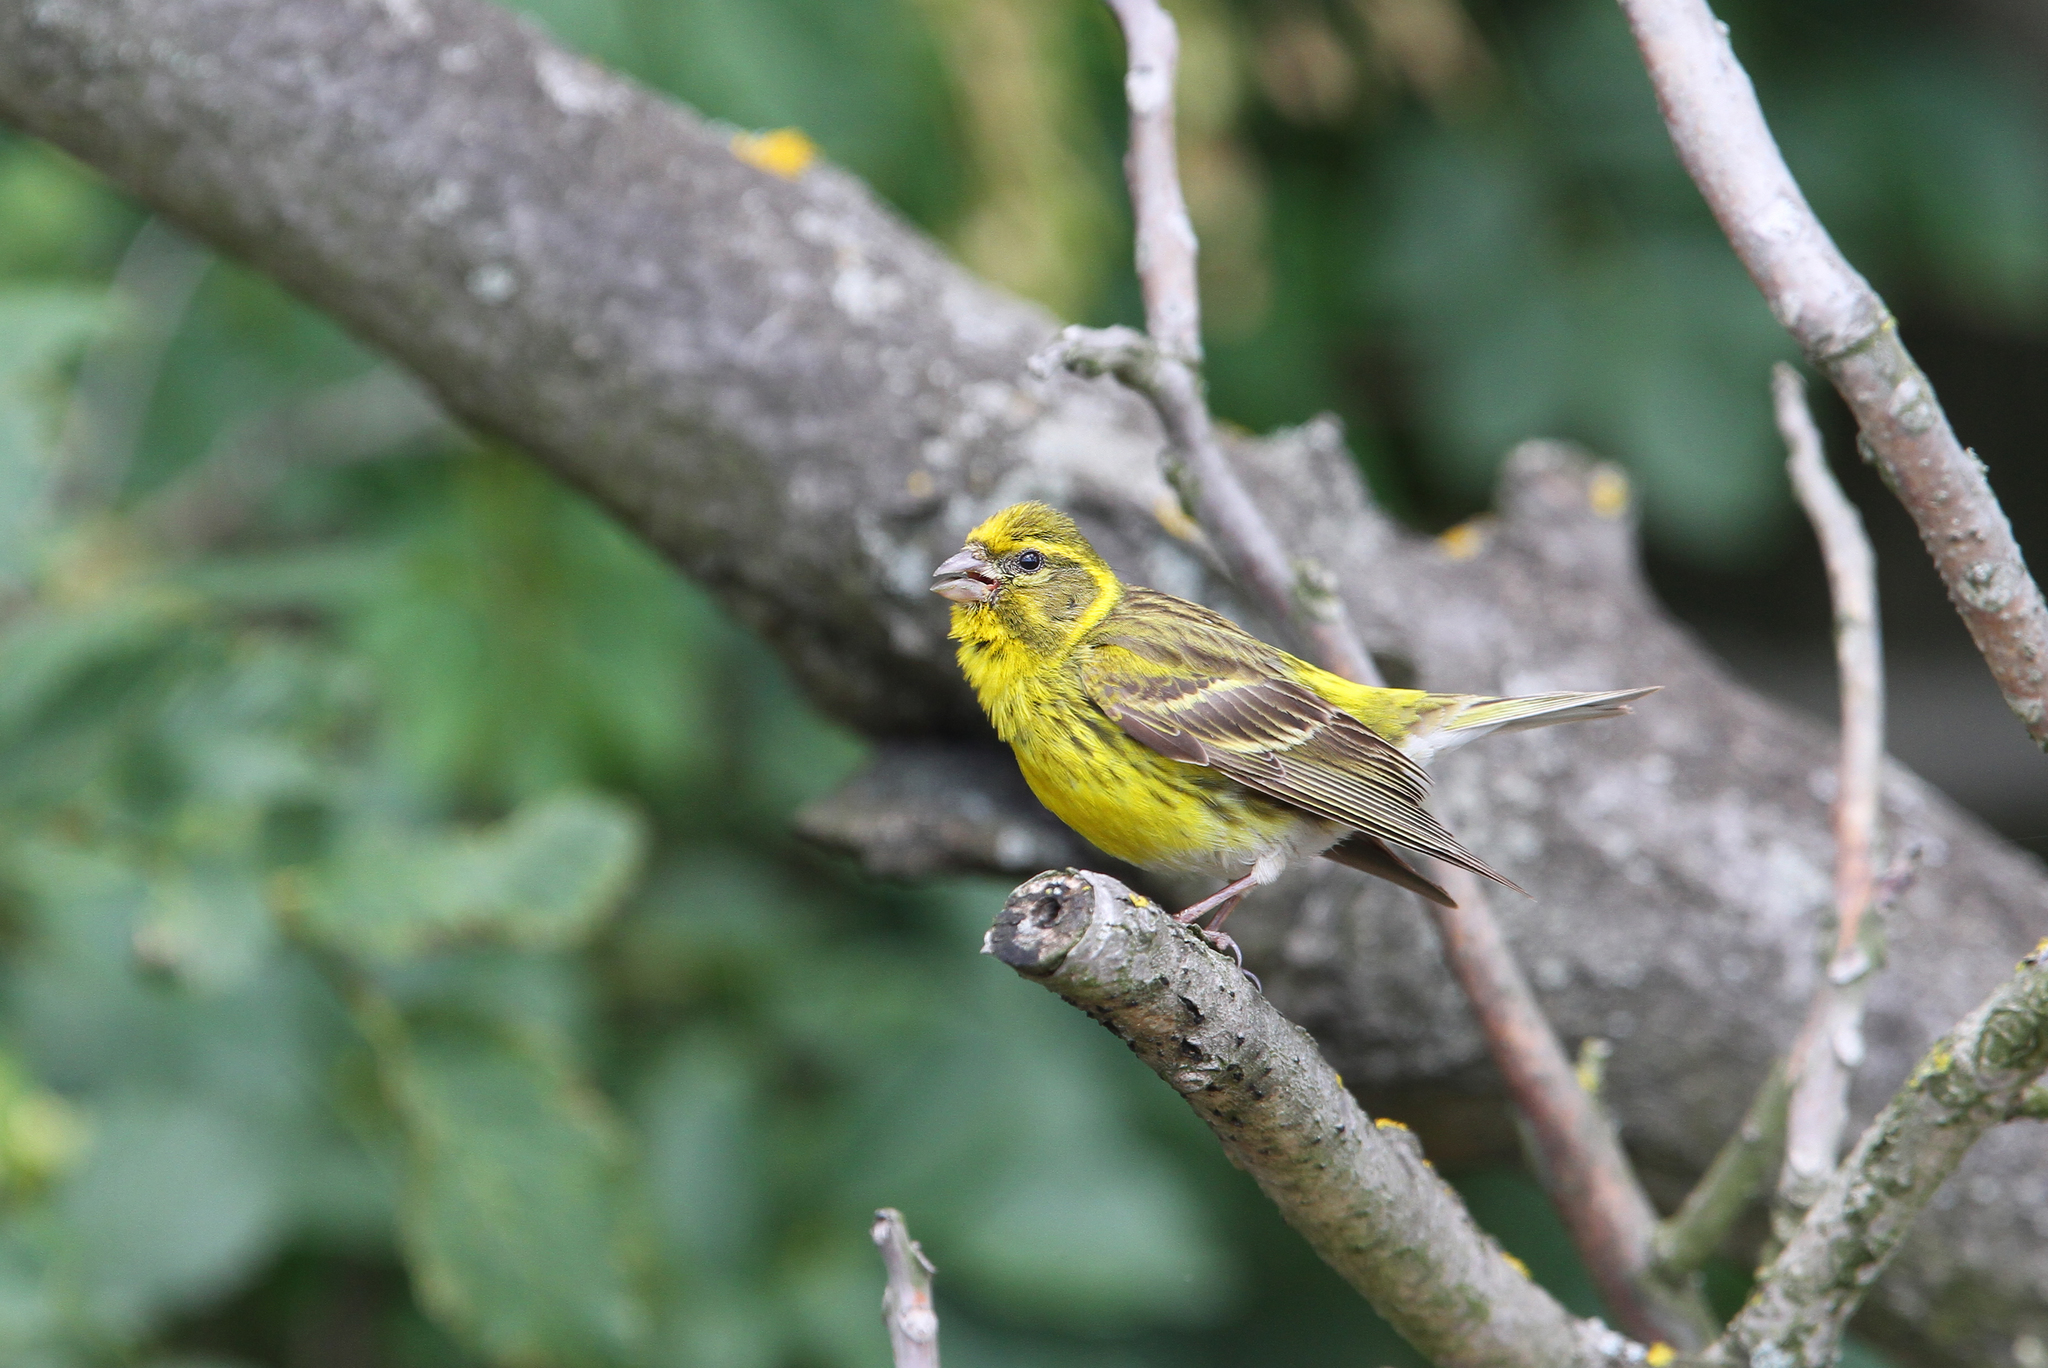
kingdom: Animalia
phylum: Chordata
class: Aves
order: Passeriformes
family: Fringillidae
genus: Serinus
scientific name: Serinus serinus
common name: European serin
